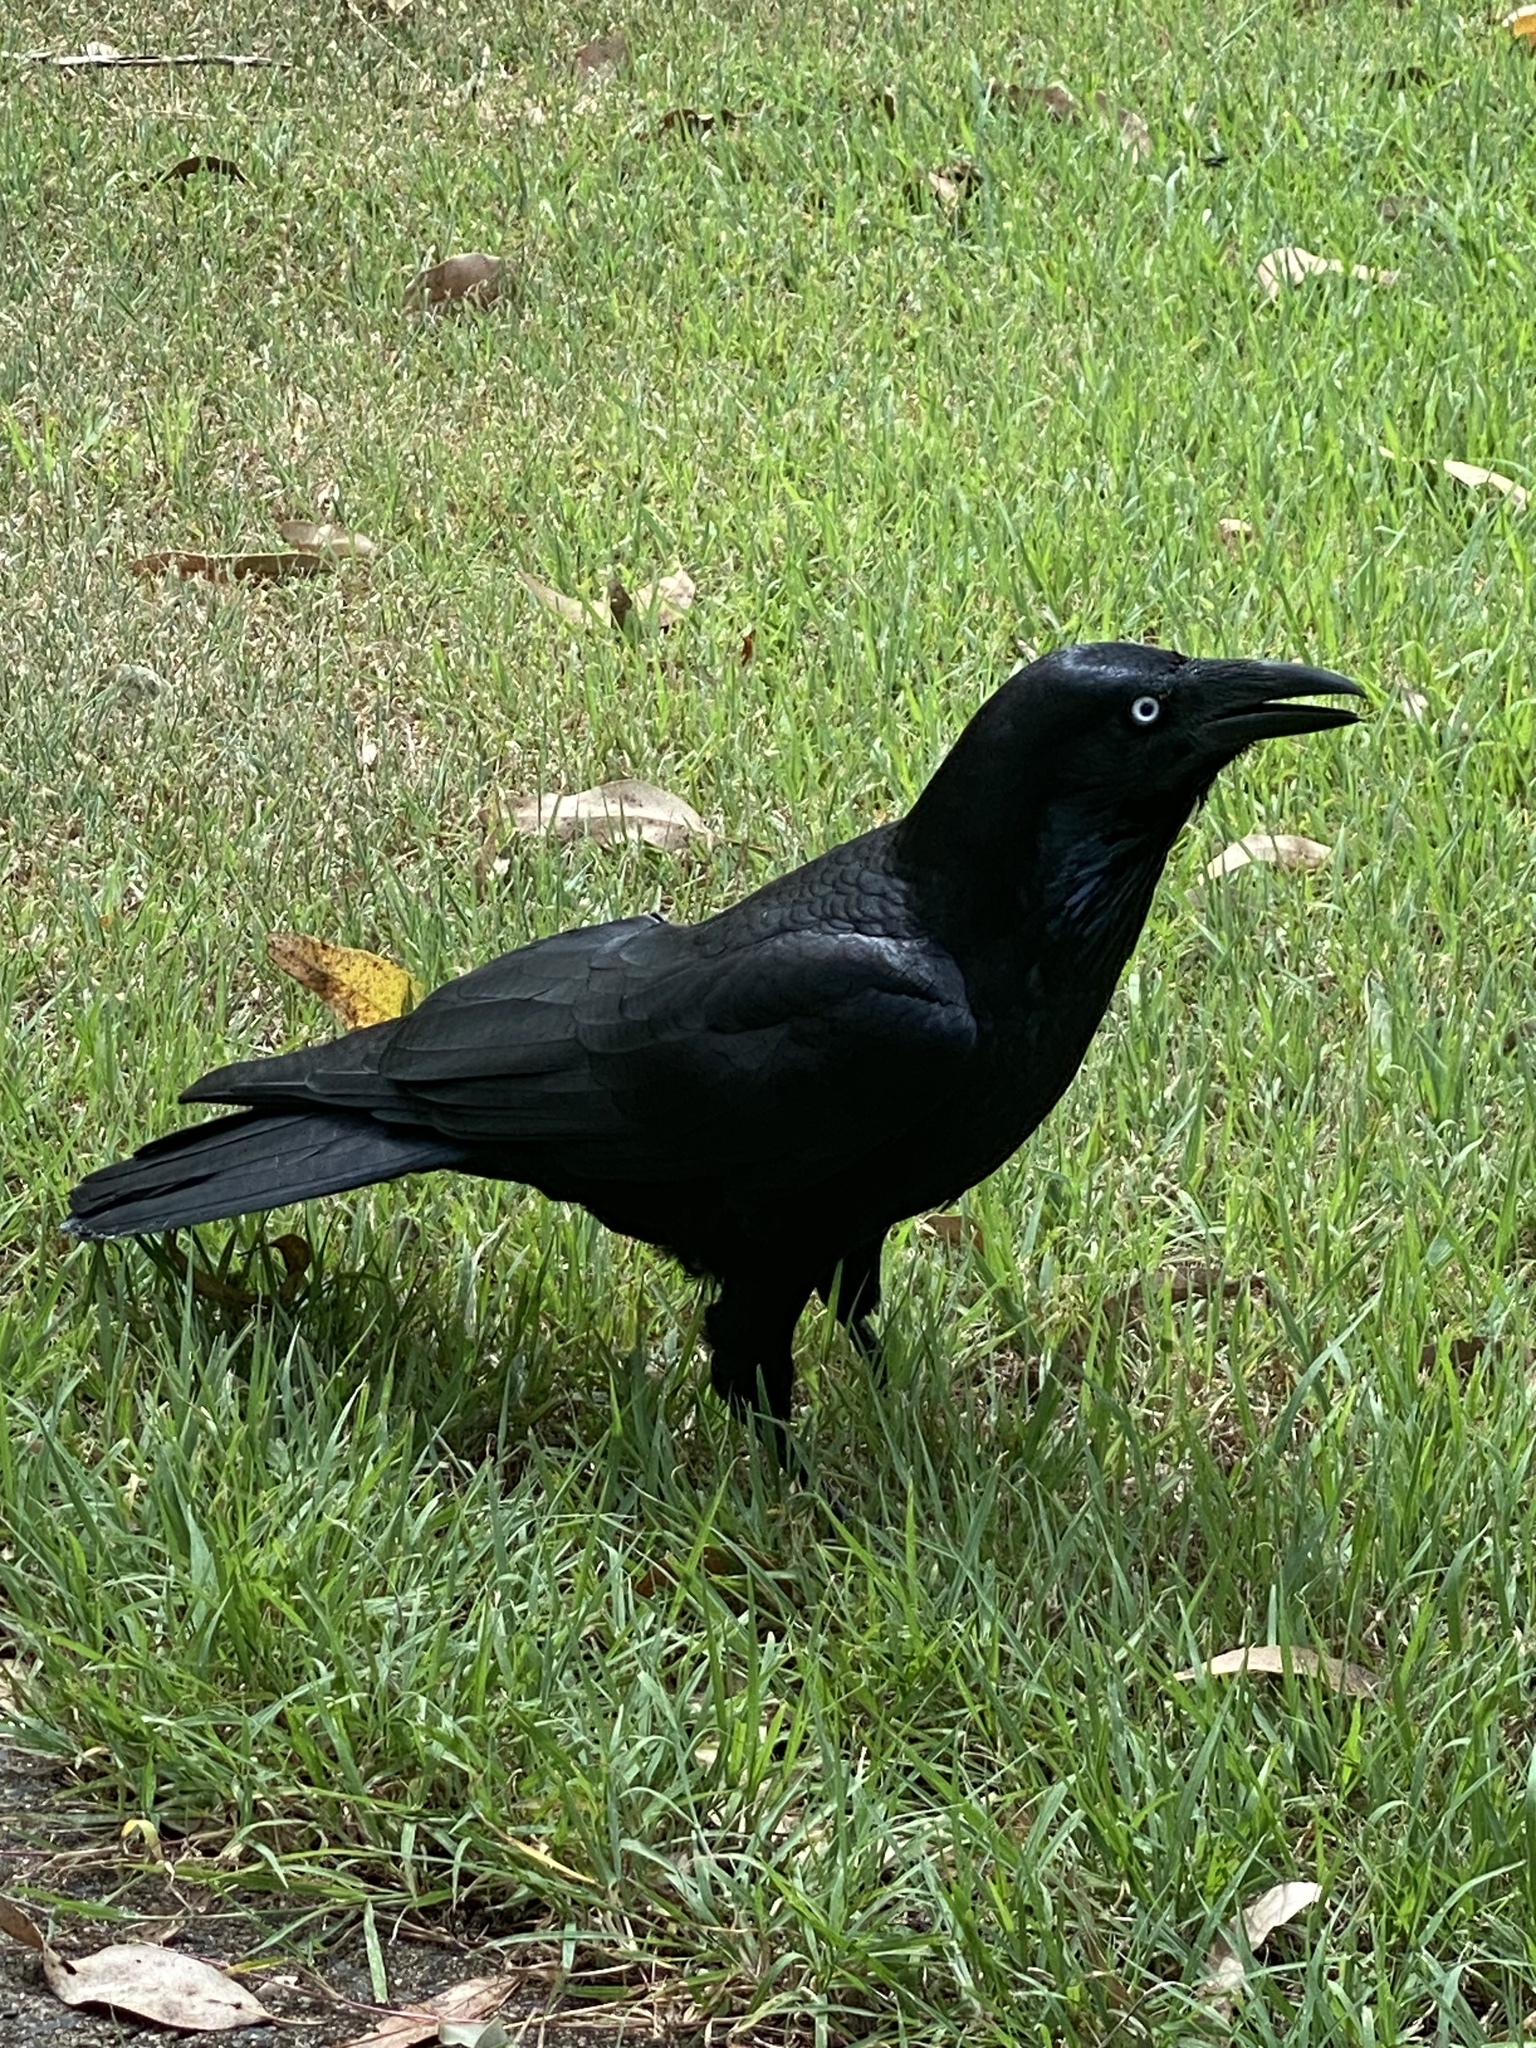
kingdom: Animalia
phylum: Chordata
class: Aves
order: Passeriformes
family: Corvidae
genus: Corvus
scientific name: Corvus orru
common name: Torresian crow
